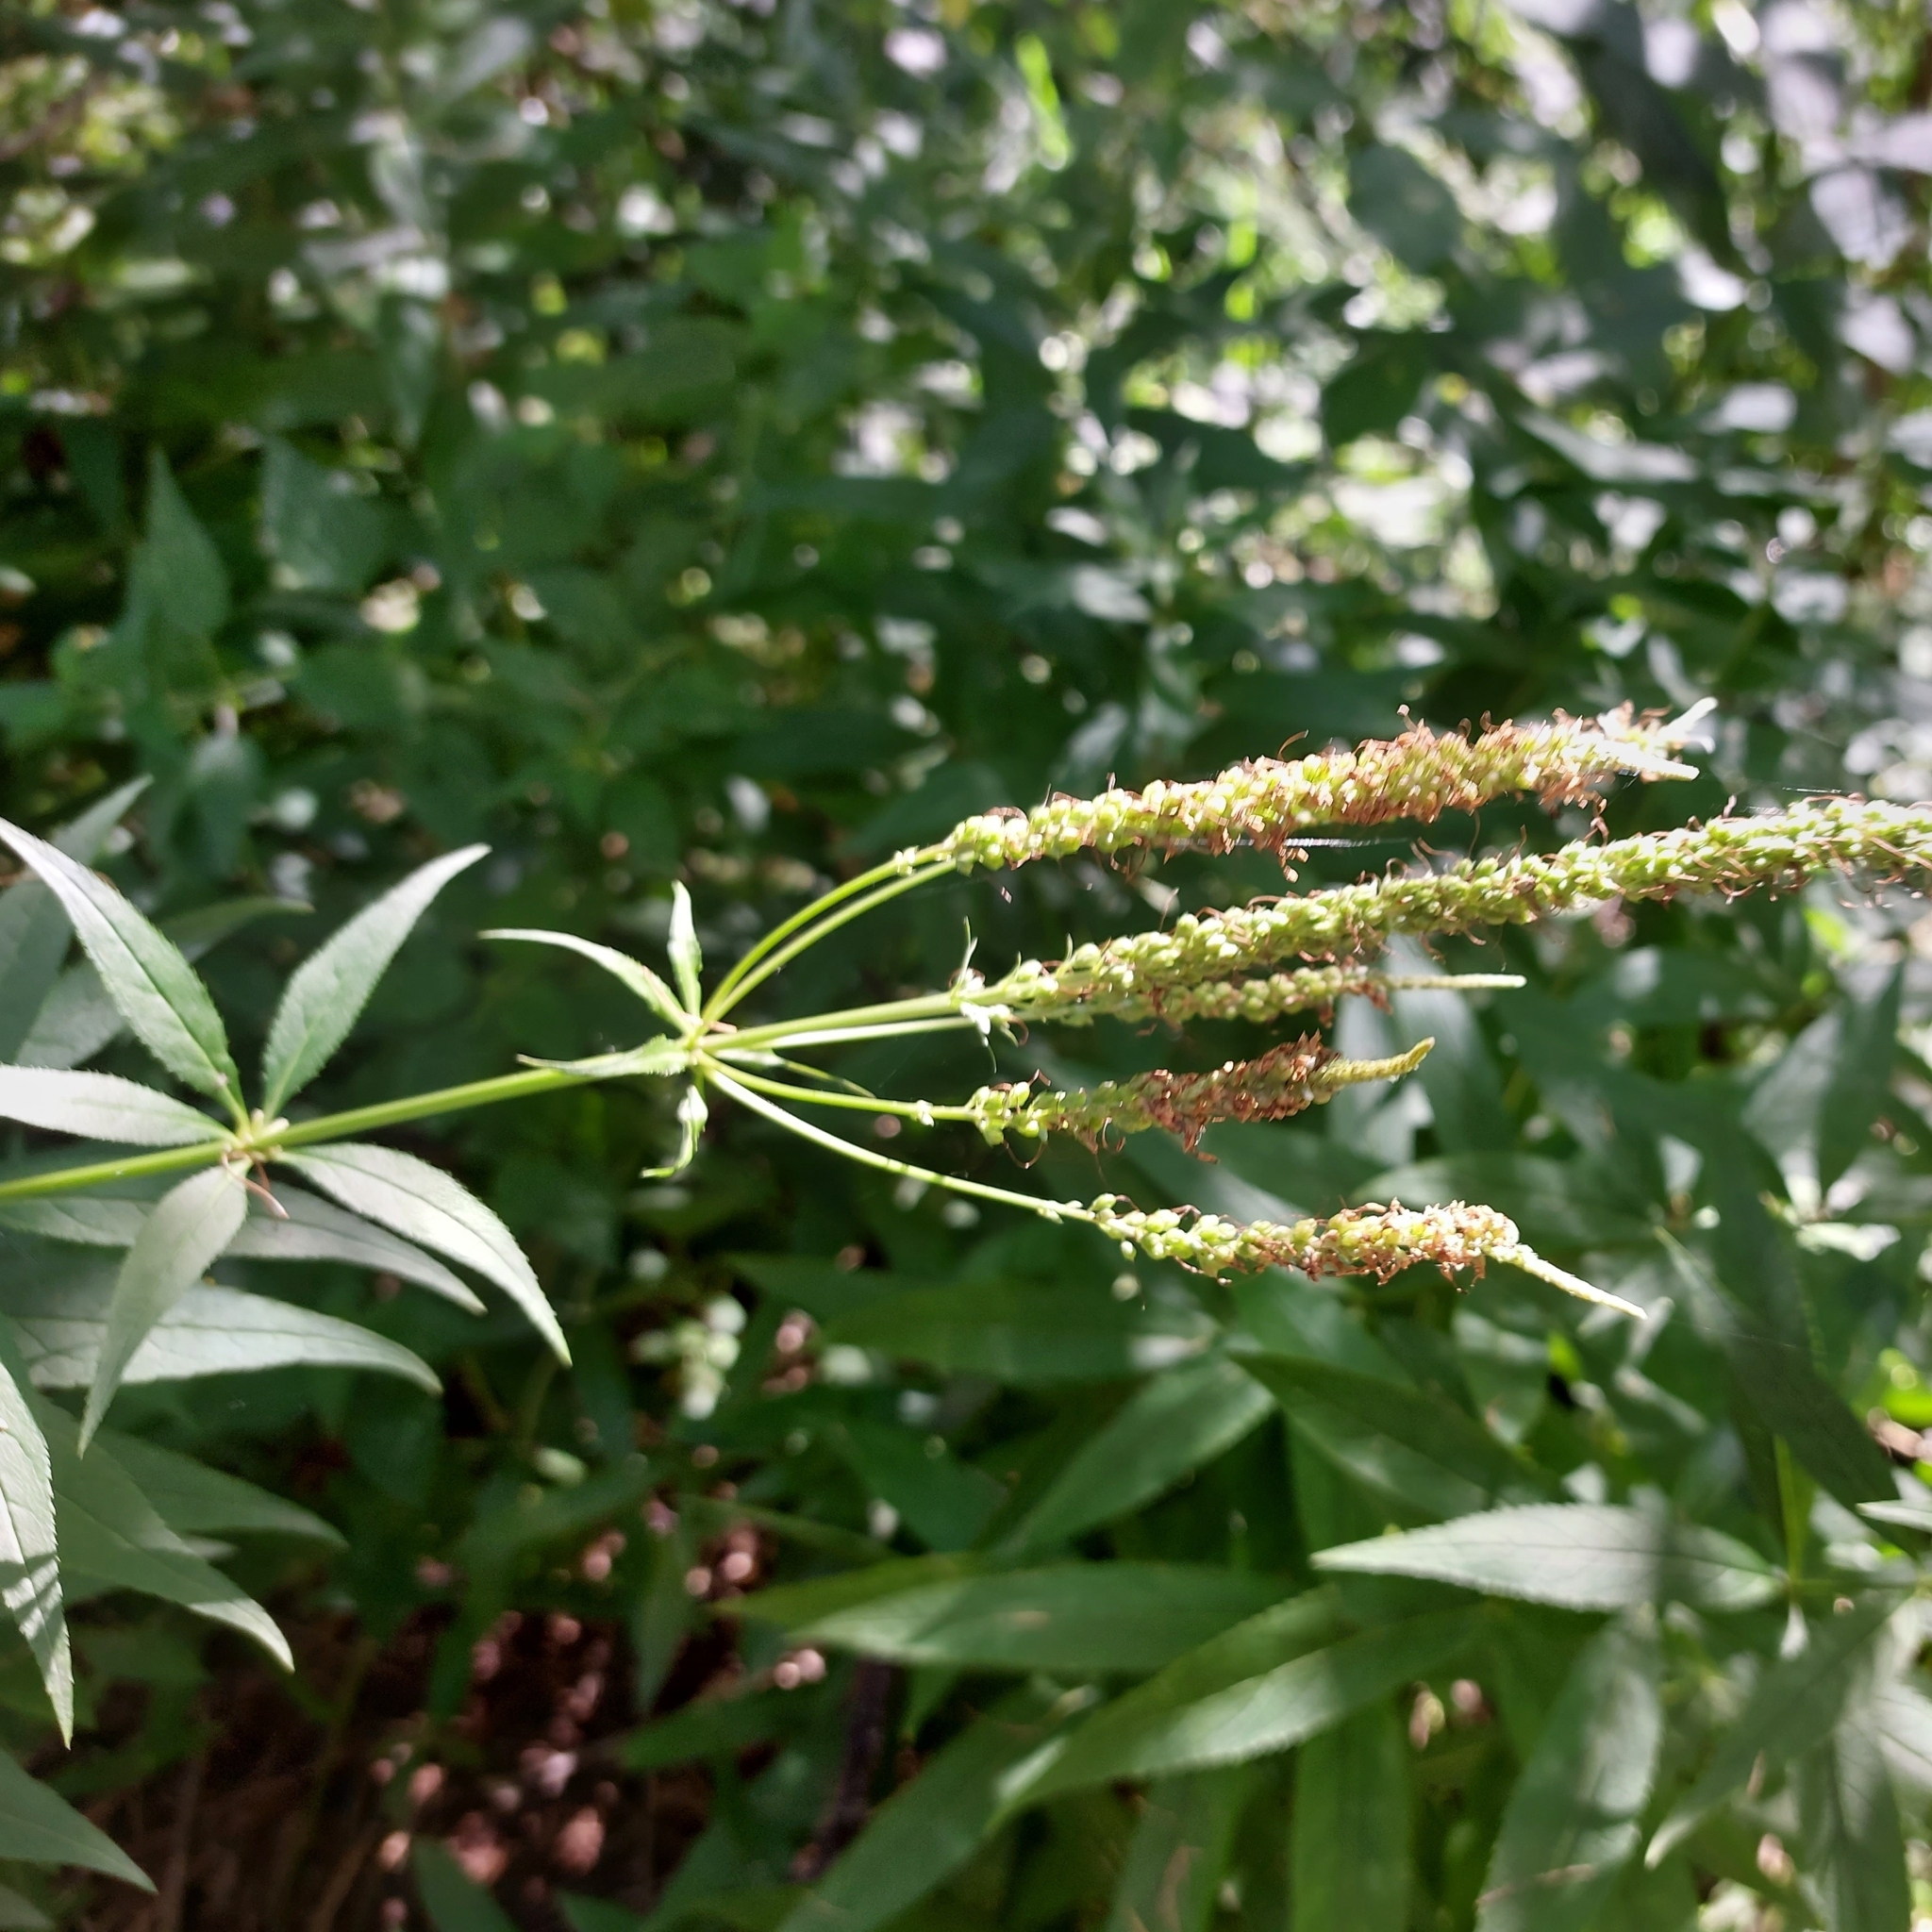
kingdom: Plantae
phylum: Tracheophyta
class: Magnoliopsida
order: Lamiales
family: Plantaginaceae
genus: Veronicastrum
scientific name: Veronicastrum virginicum
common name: Blackroot
